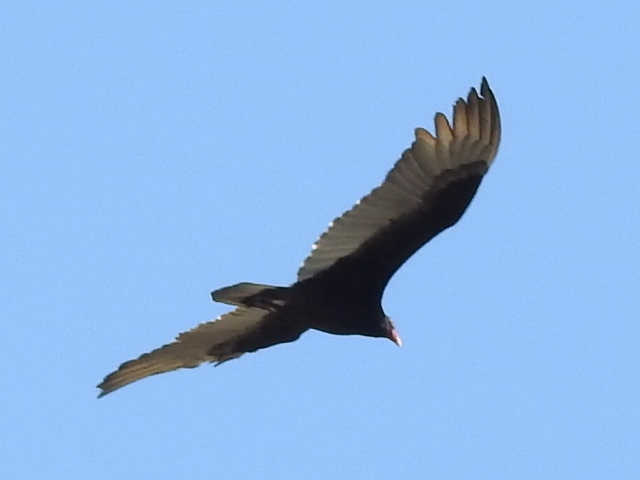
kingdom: Animalia
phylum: Chordata
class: Aves
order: Accipitriformes
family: Cathartidae
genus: Cathartes
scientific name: Cathartes aura
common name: Turkey vulture
